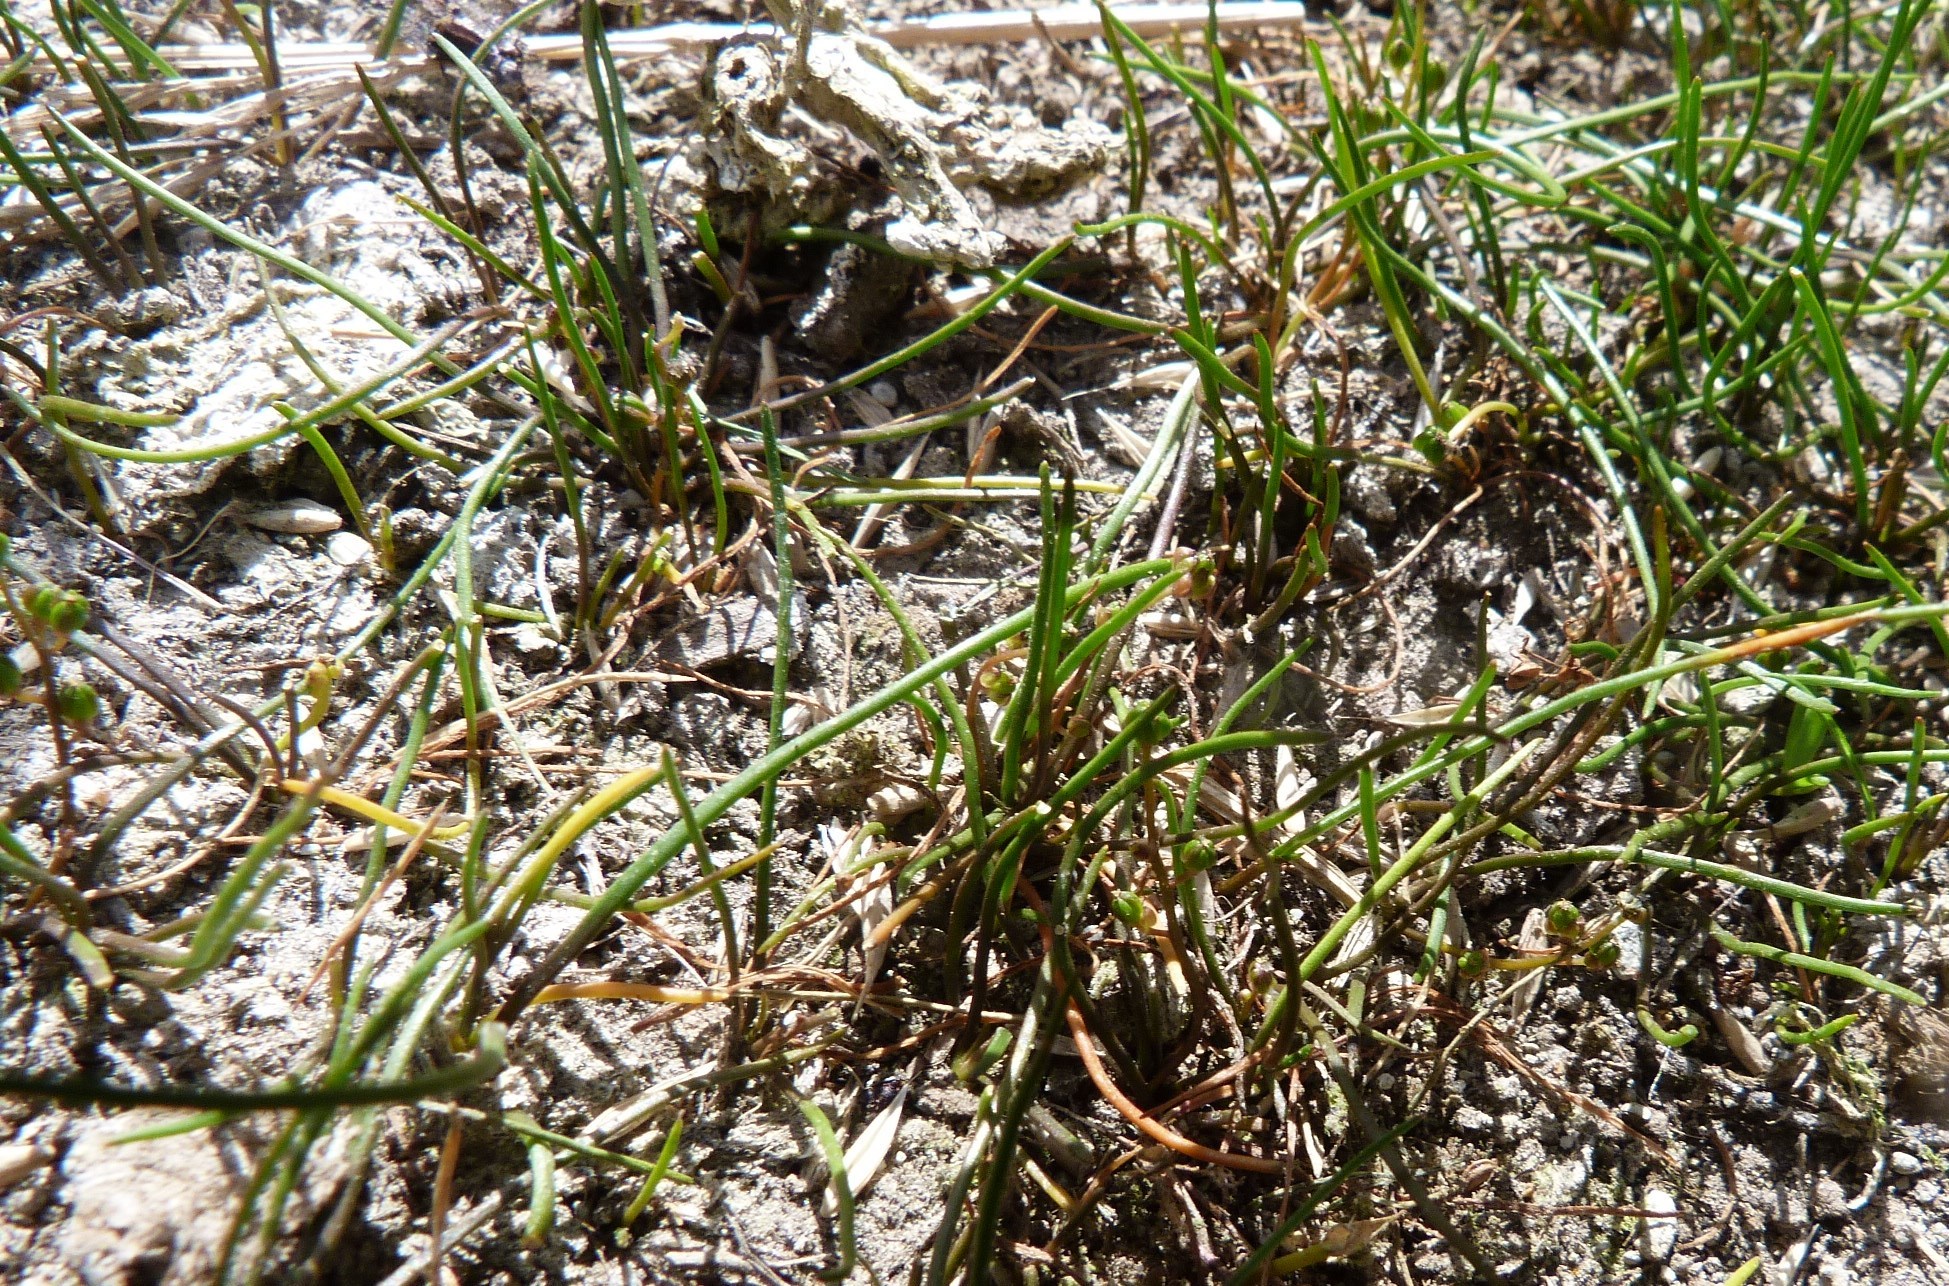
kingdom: Plantae
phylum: Tracheophyta
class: Liliopsida
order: Alismatales
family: Juncaginaceae
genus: Triglochin
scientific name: Triglochin striata
